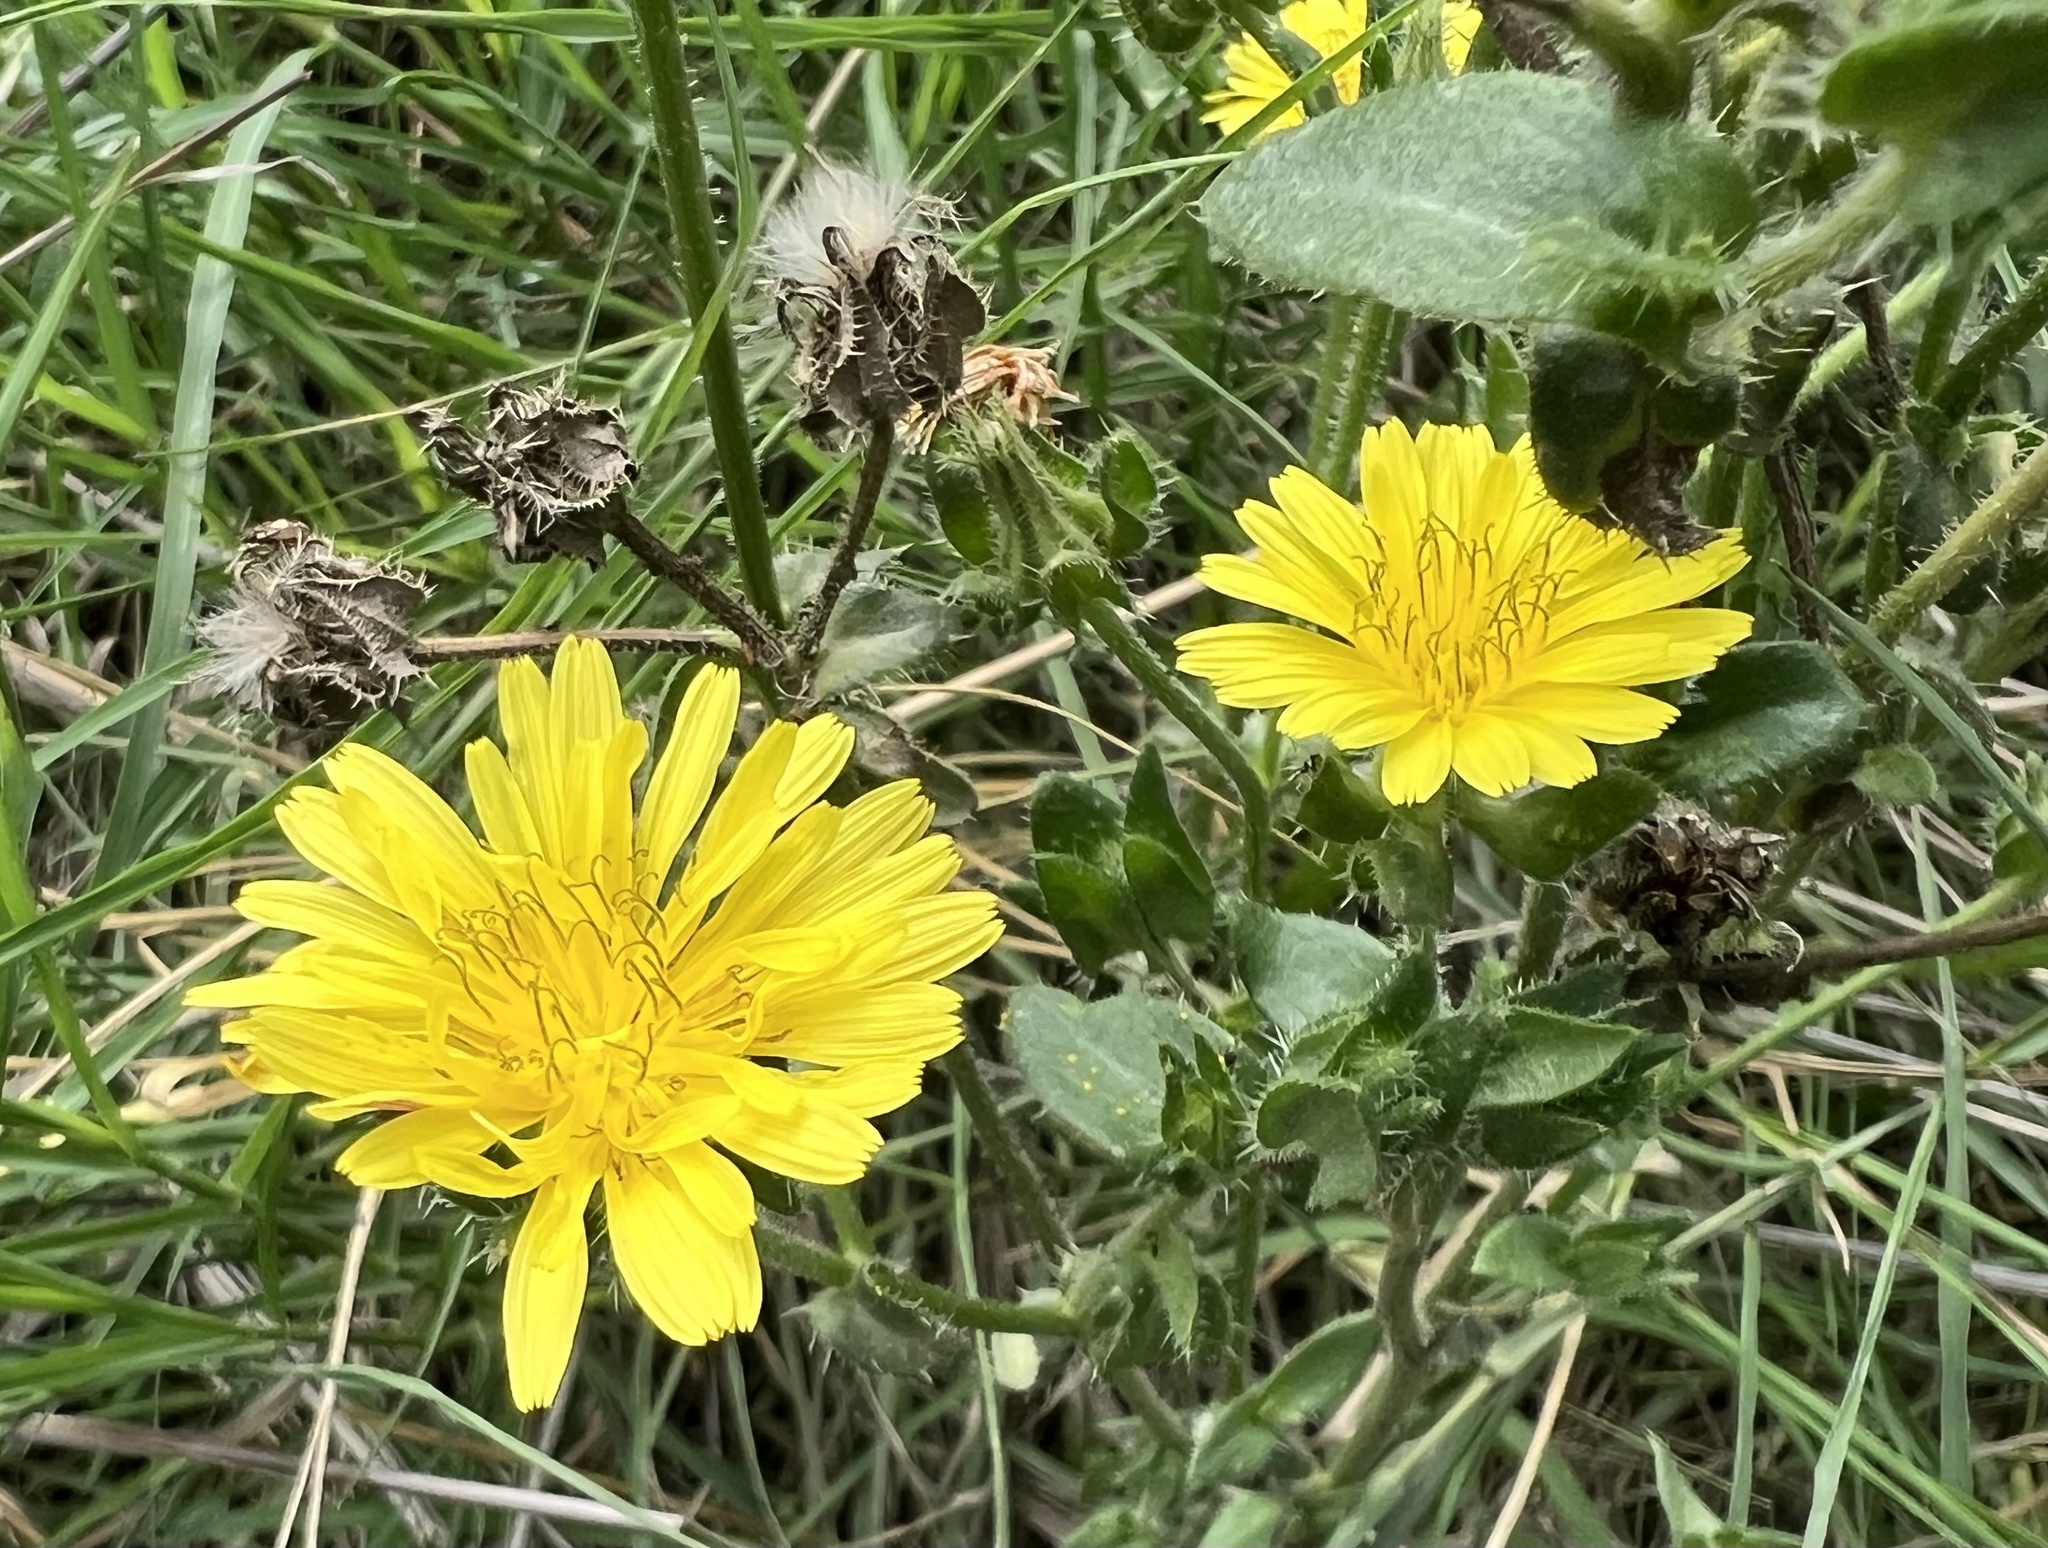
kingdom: Plantae
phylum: Tracheophyta
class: Magnoliopsida
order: Asterales
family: Asteraceae
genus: Helminthotheca
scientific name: Helminthotheca echioides
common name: Ox-tongue
